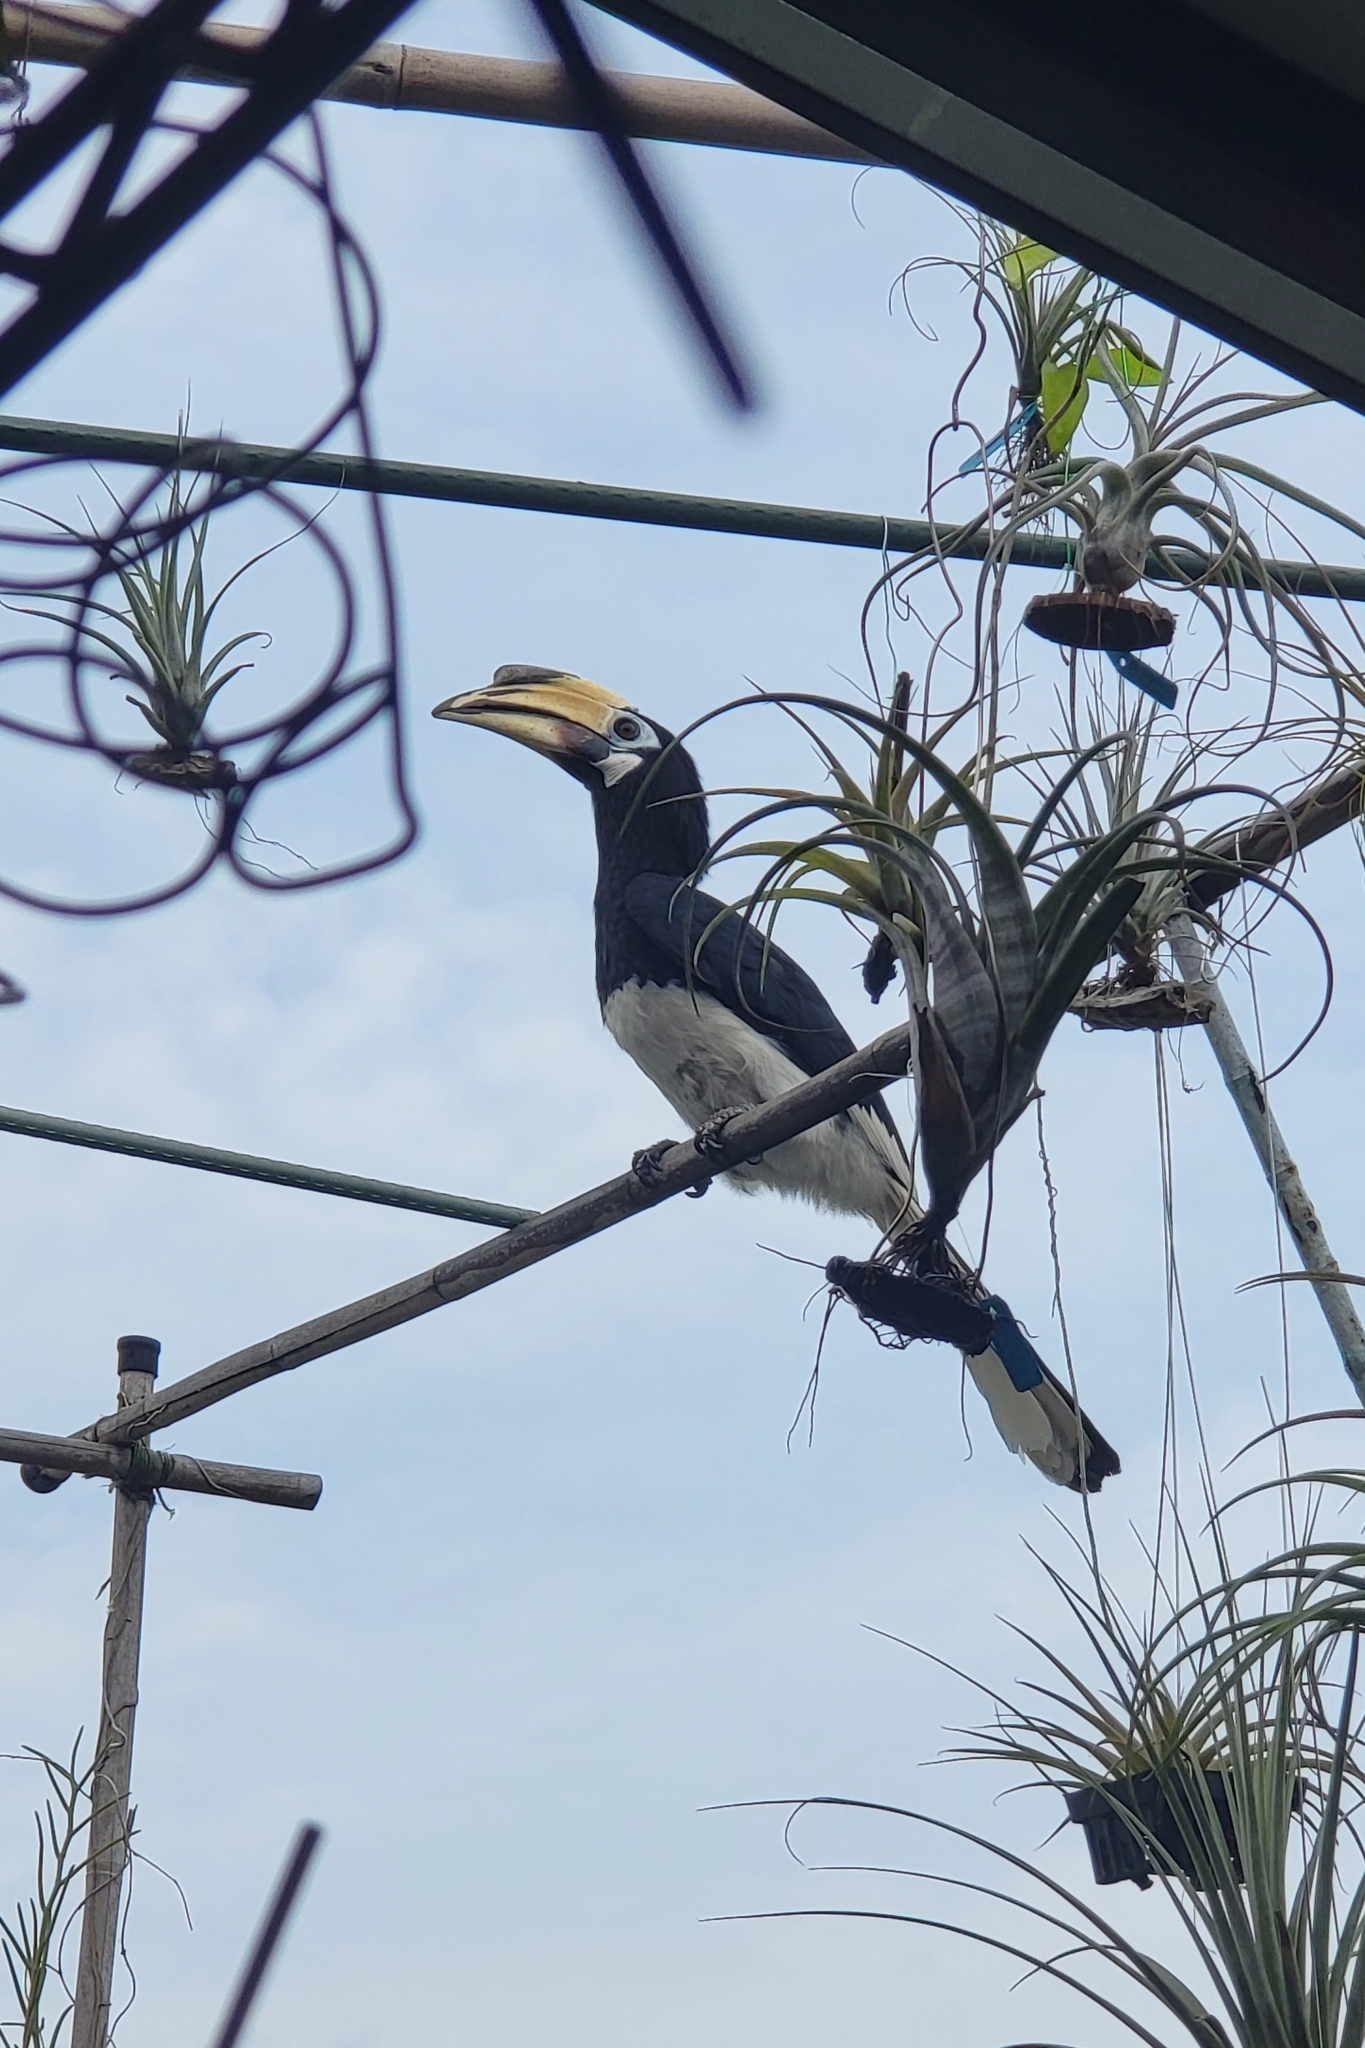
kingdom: Animalia
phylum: Chordata
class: Aves
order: Bucerotiformes
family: Bucerotidae
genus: Anthracoceros
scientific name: Anthracoceros albirostris
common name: Oriental pied-hornbill
